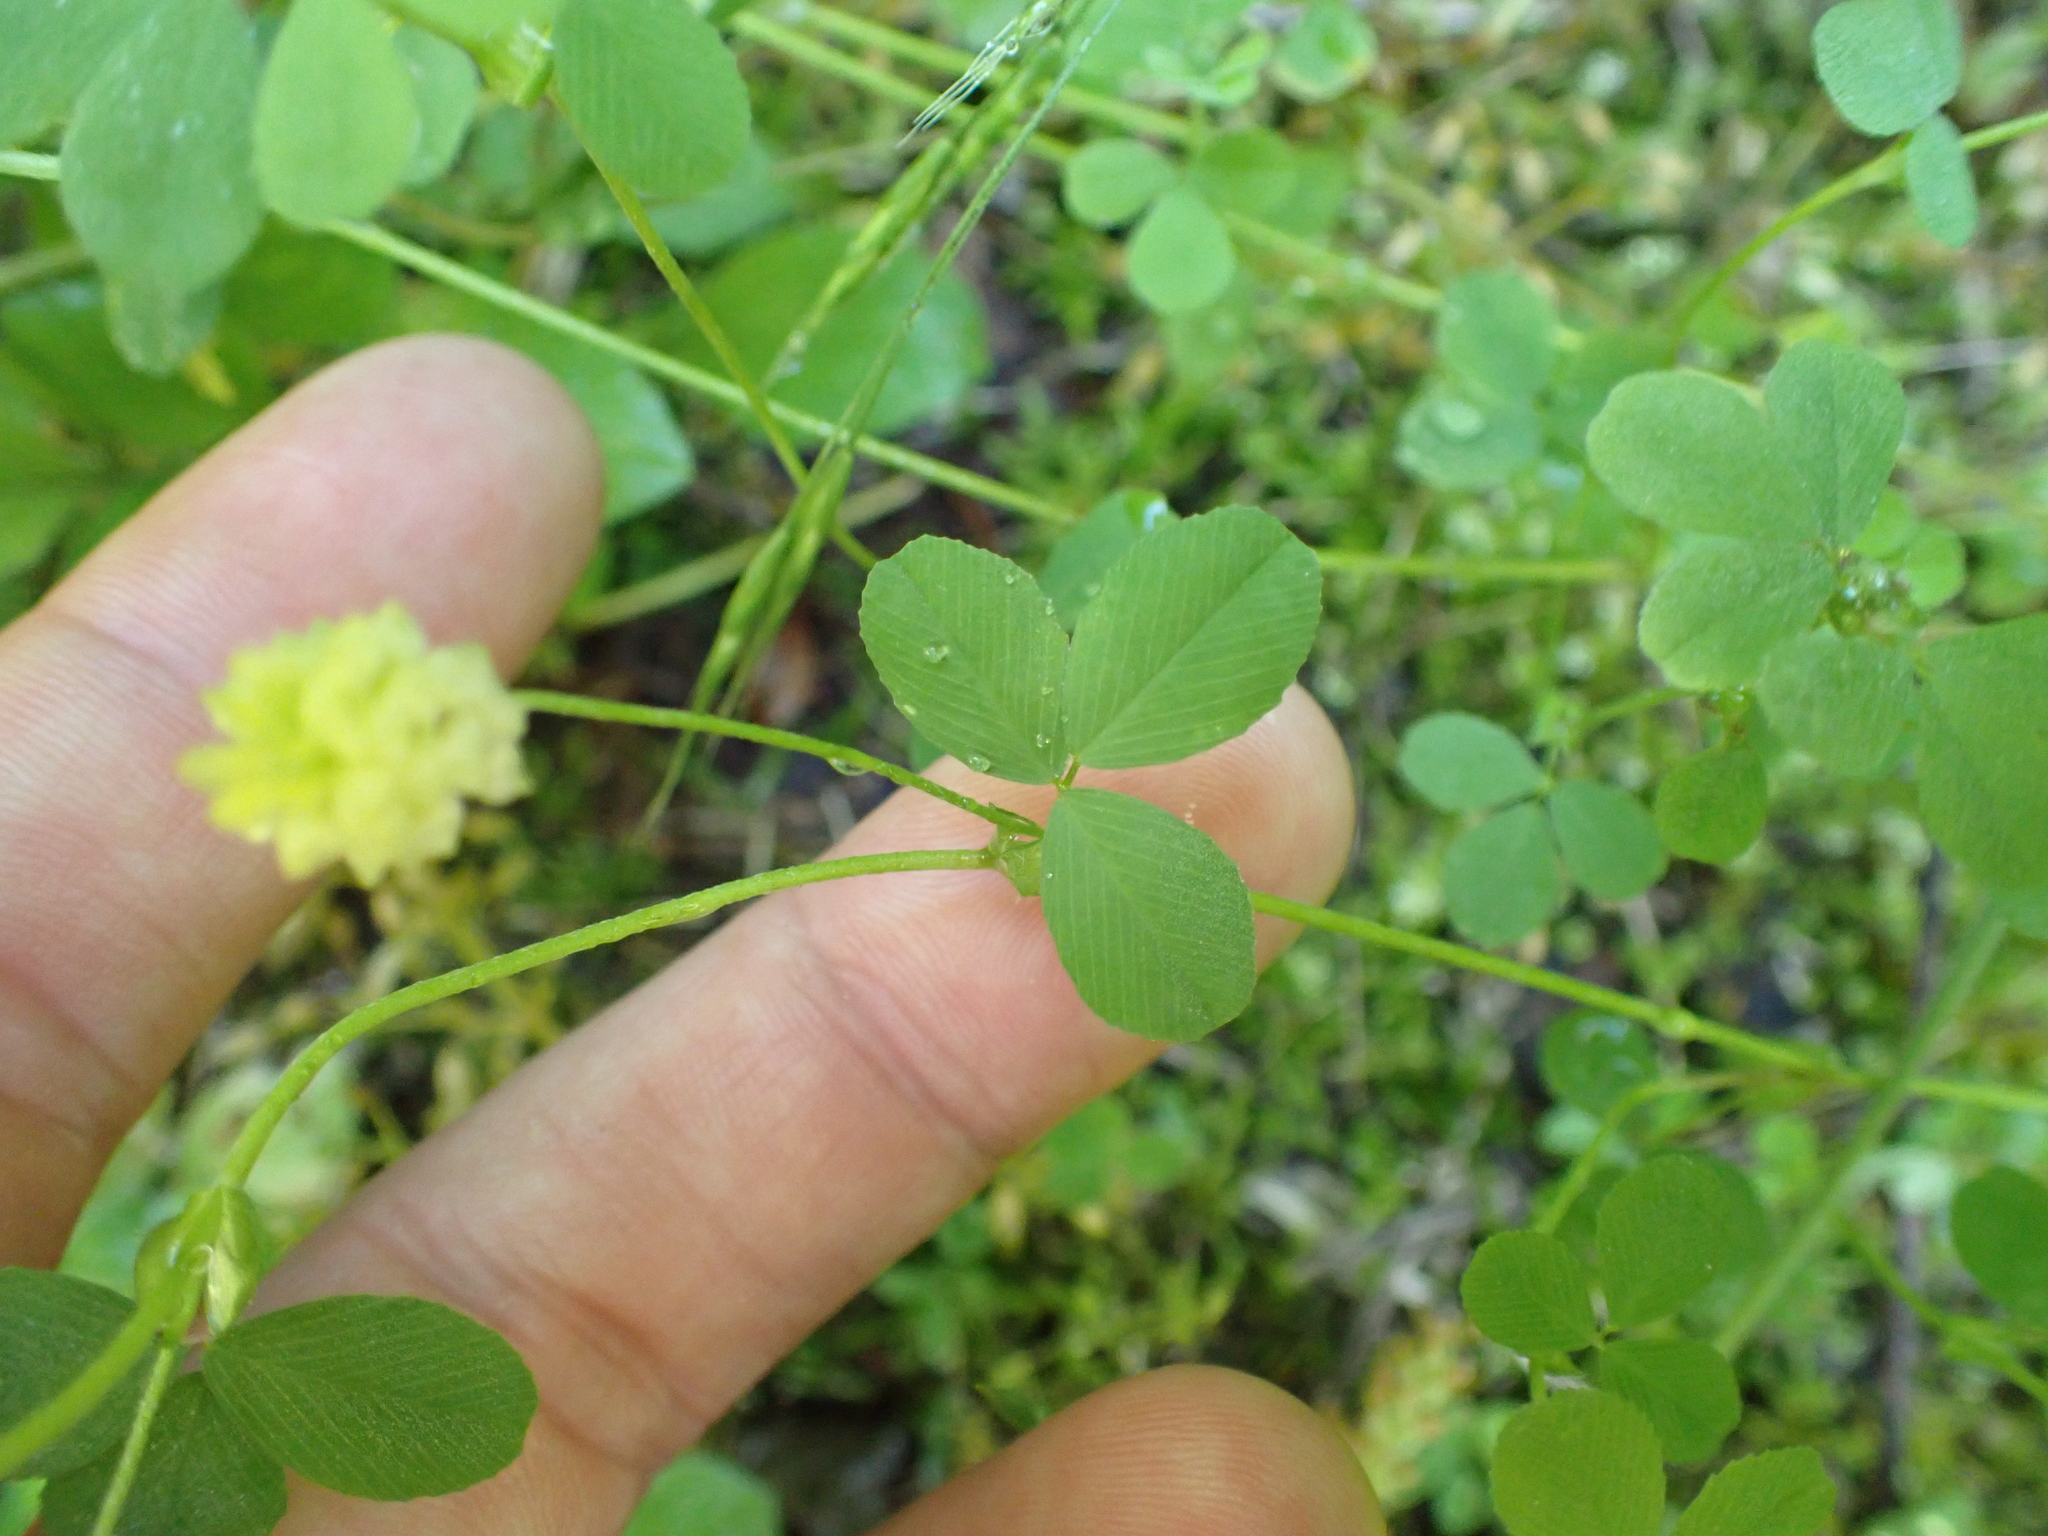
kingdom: Plantae
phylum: Tracheophyta
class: Magnoliopsida
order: Fabales
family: Fabaceae
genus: Trifolium
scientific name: Trifolium campestre
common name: Field clover
